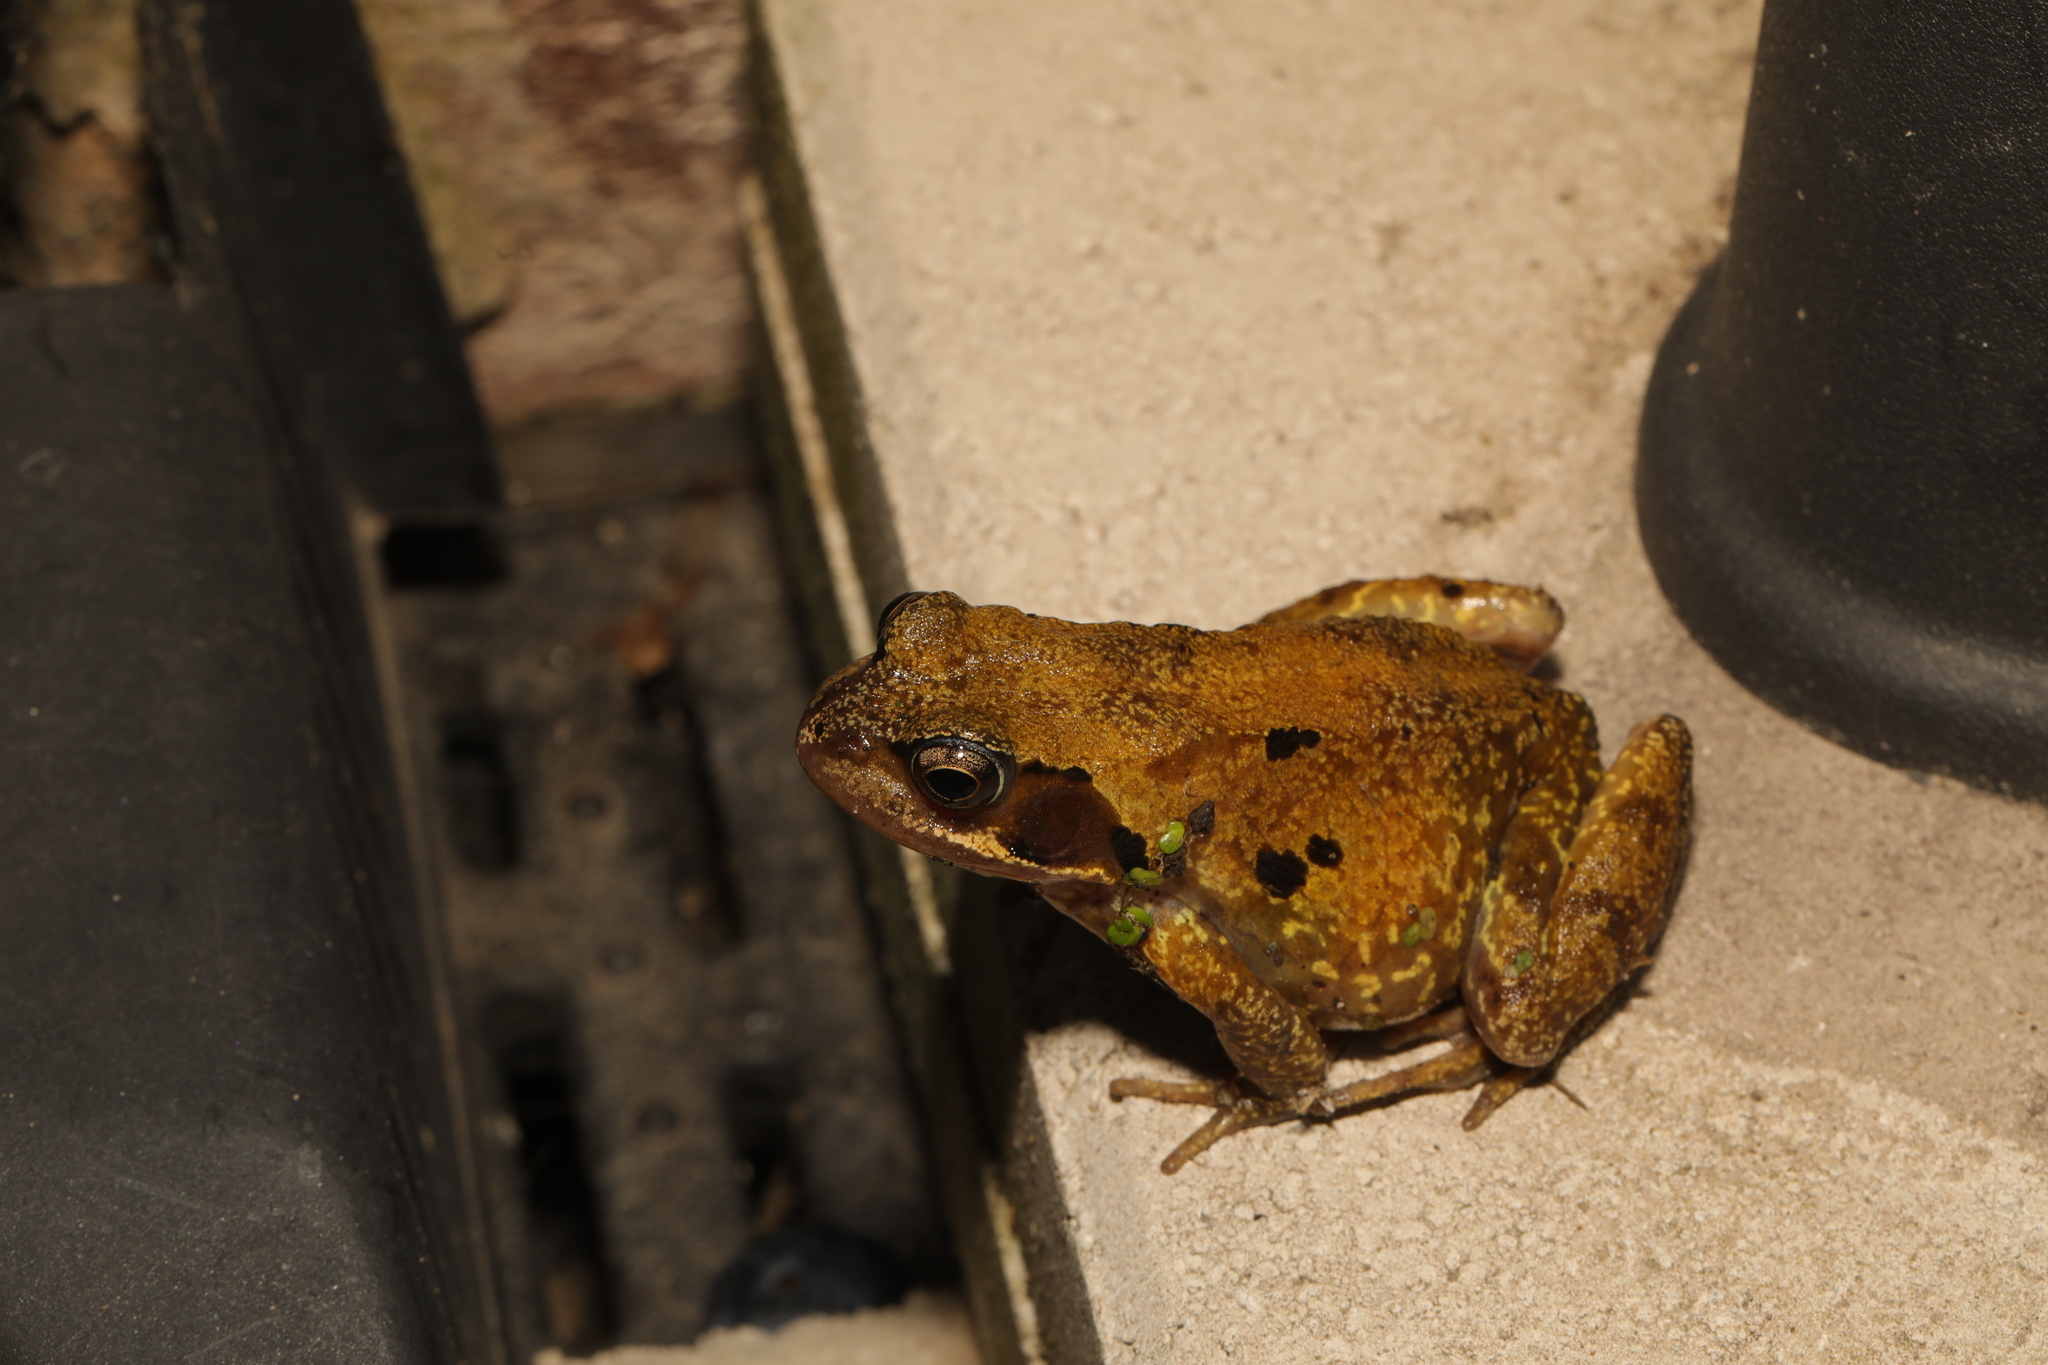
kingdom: Animalia
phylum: Chordata
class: Amphibia
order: Anura
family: Ranidae
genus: Rana
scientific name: Rana temporaria
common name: Common frog
